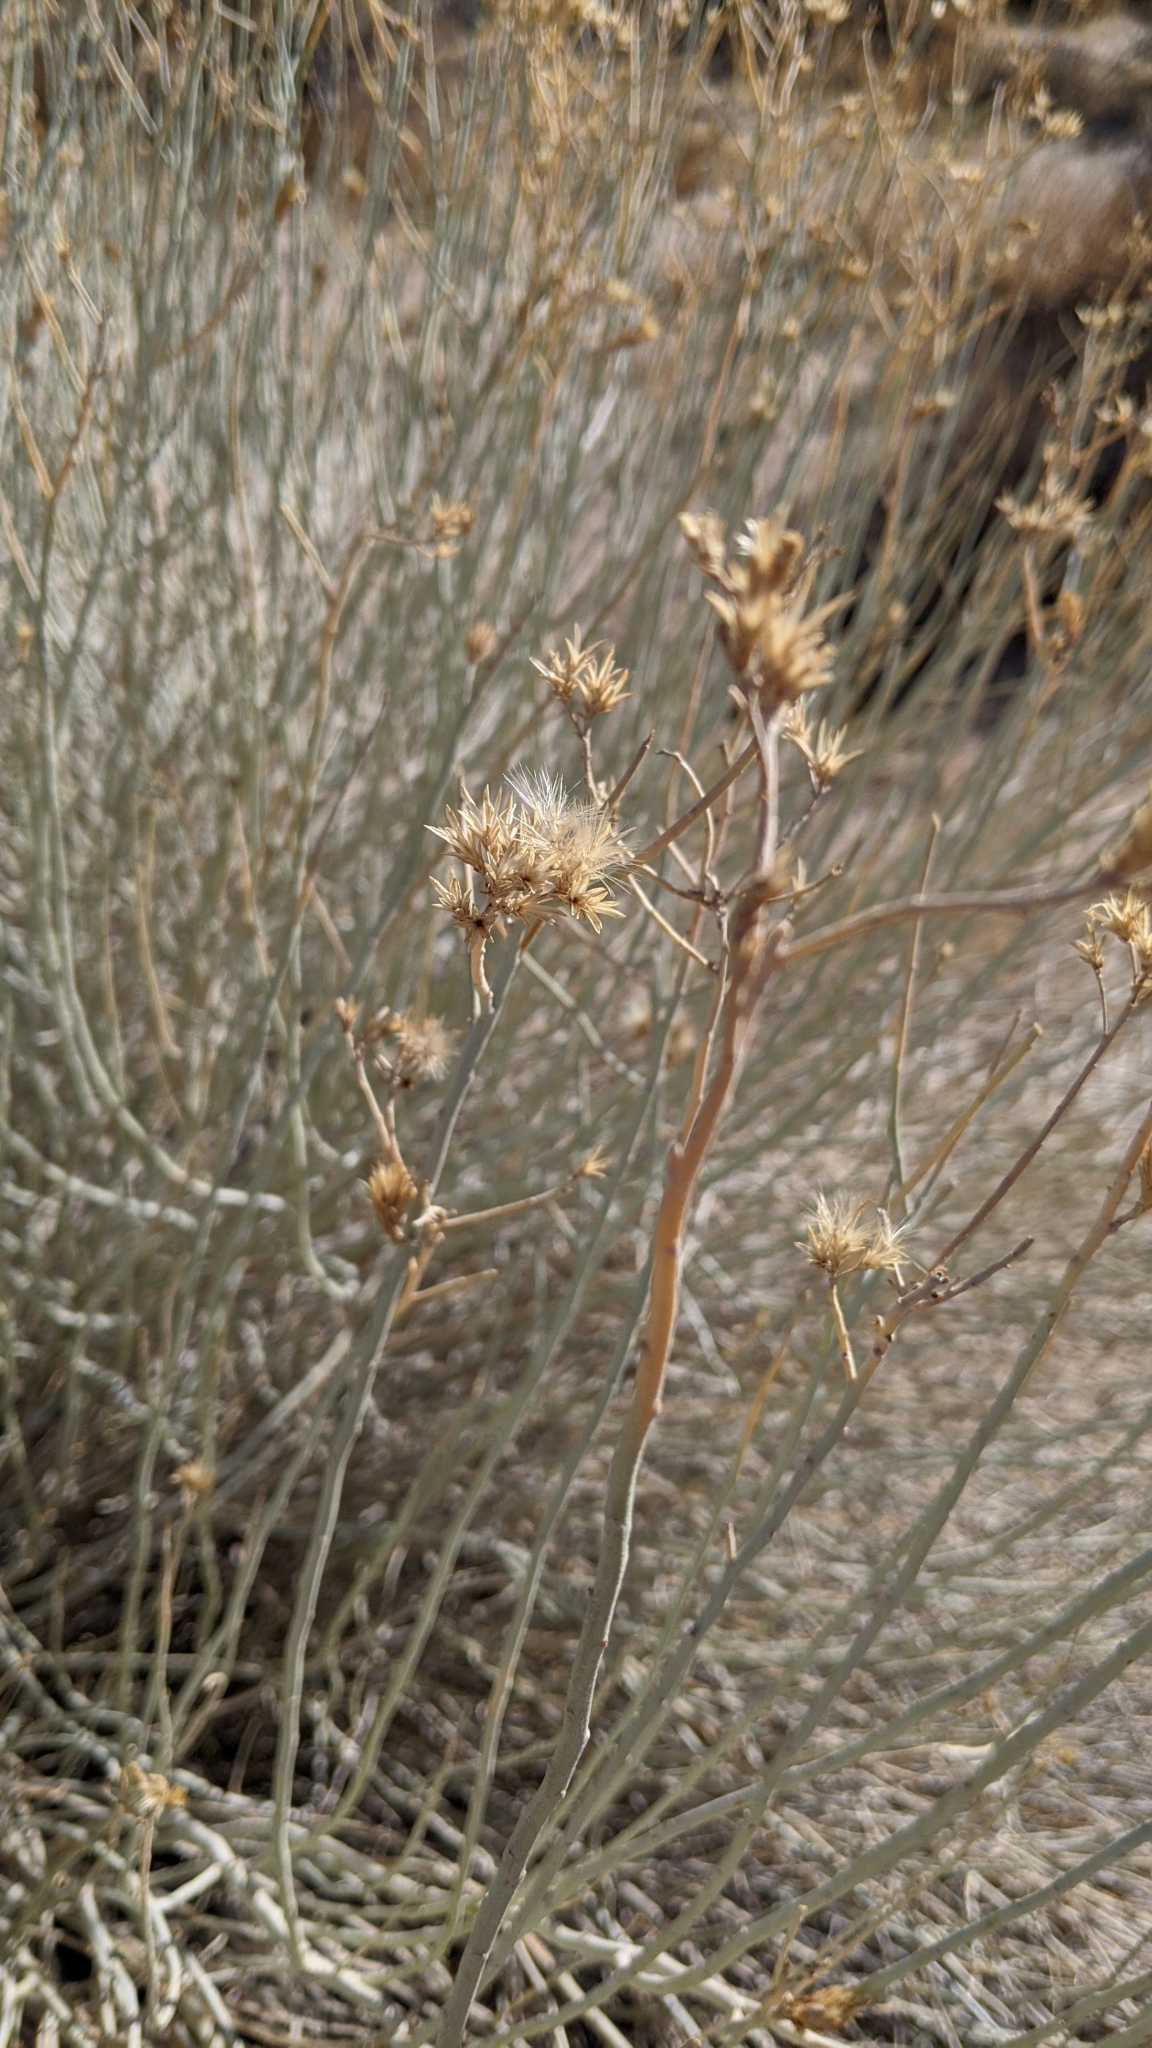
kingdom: Plantae
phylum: Tracheophyta
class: Magnoliopsida
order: Asterales
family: Asteraceae
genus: Ericameria
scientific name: Ericameria nauseosa
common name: Rubber rabbitbrush
